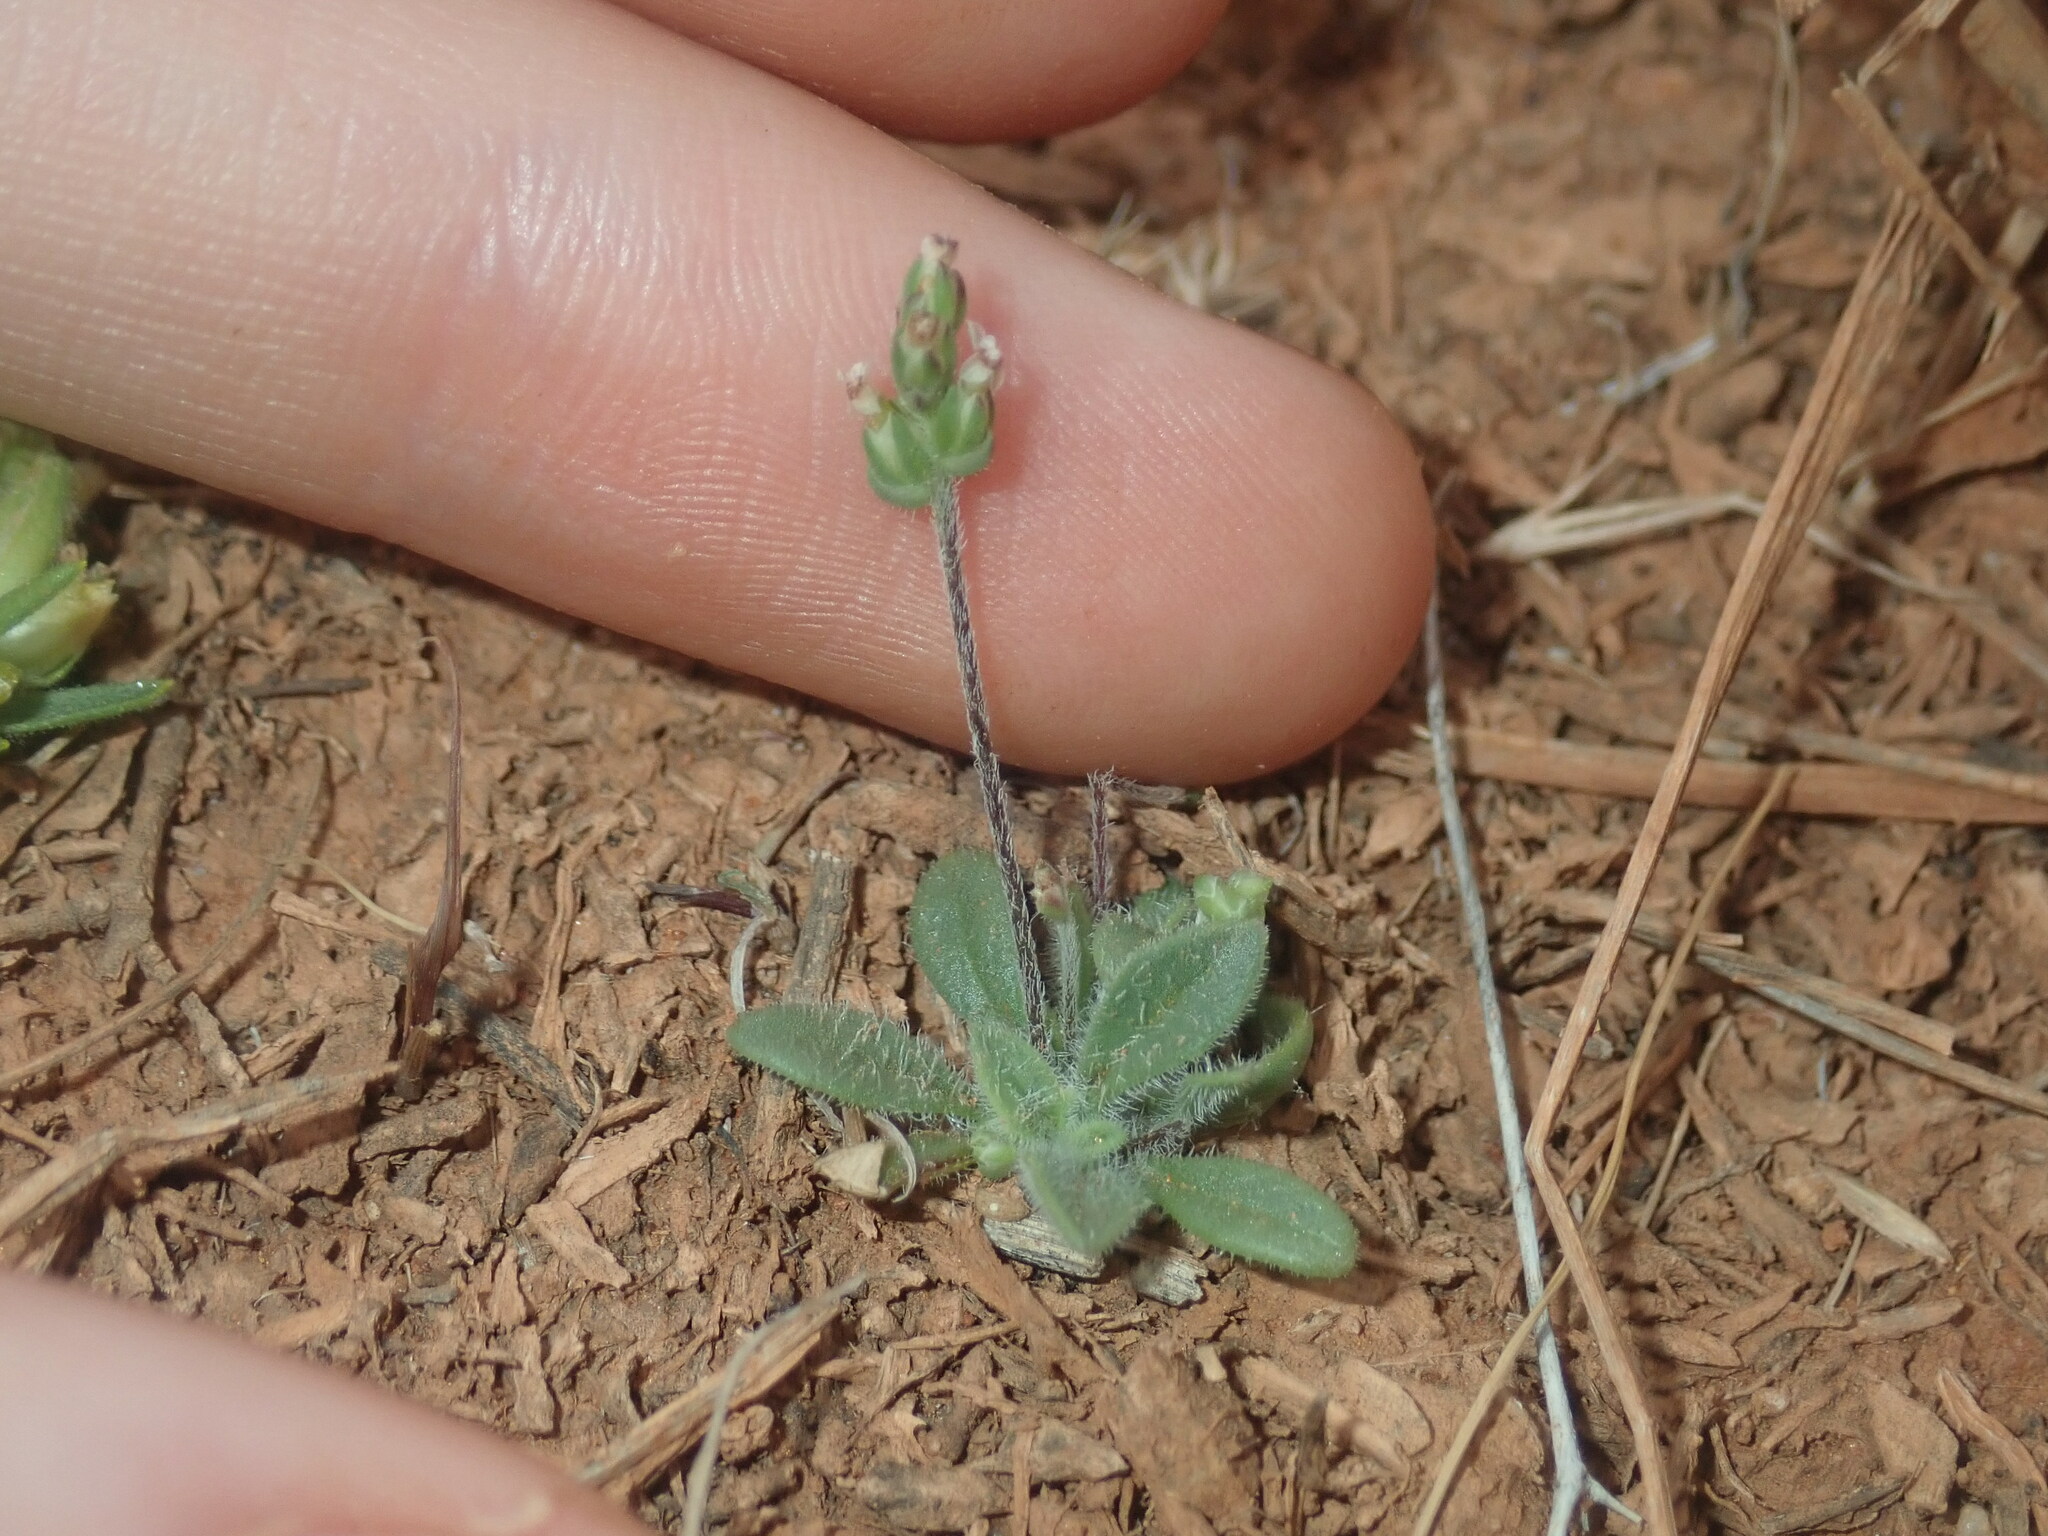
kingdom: Plantae
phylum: Tracheophyta
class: Magnoliopsida
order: Lamiales
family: Plantaginaceae
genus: Plantago
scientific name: Plantago turrifera
